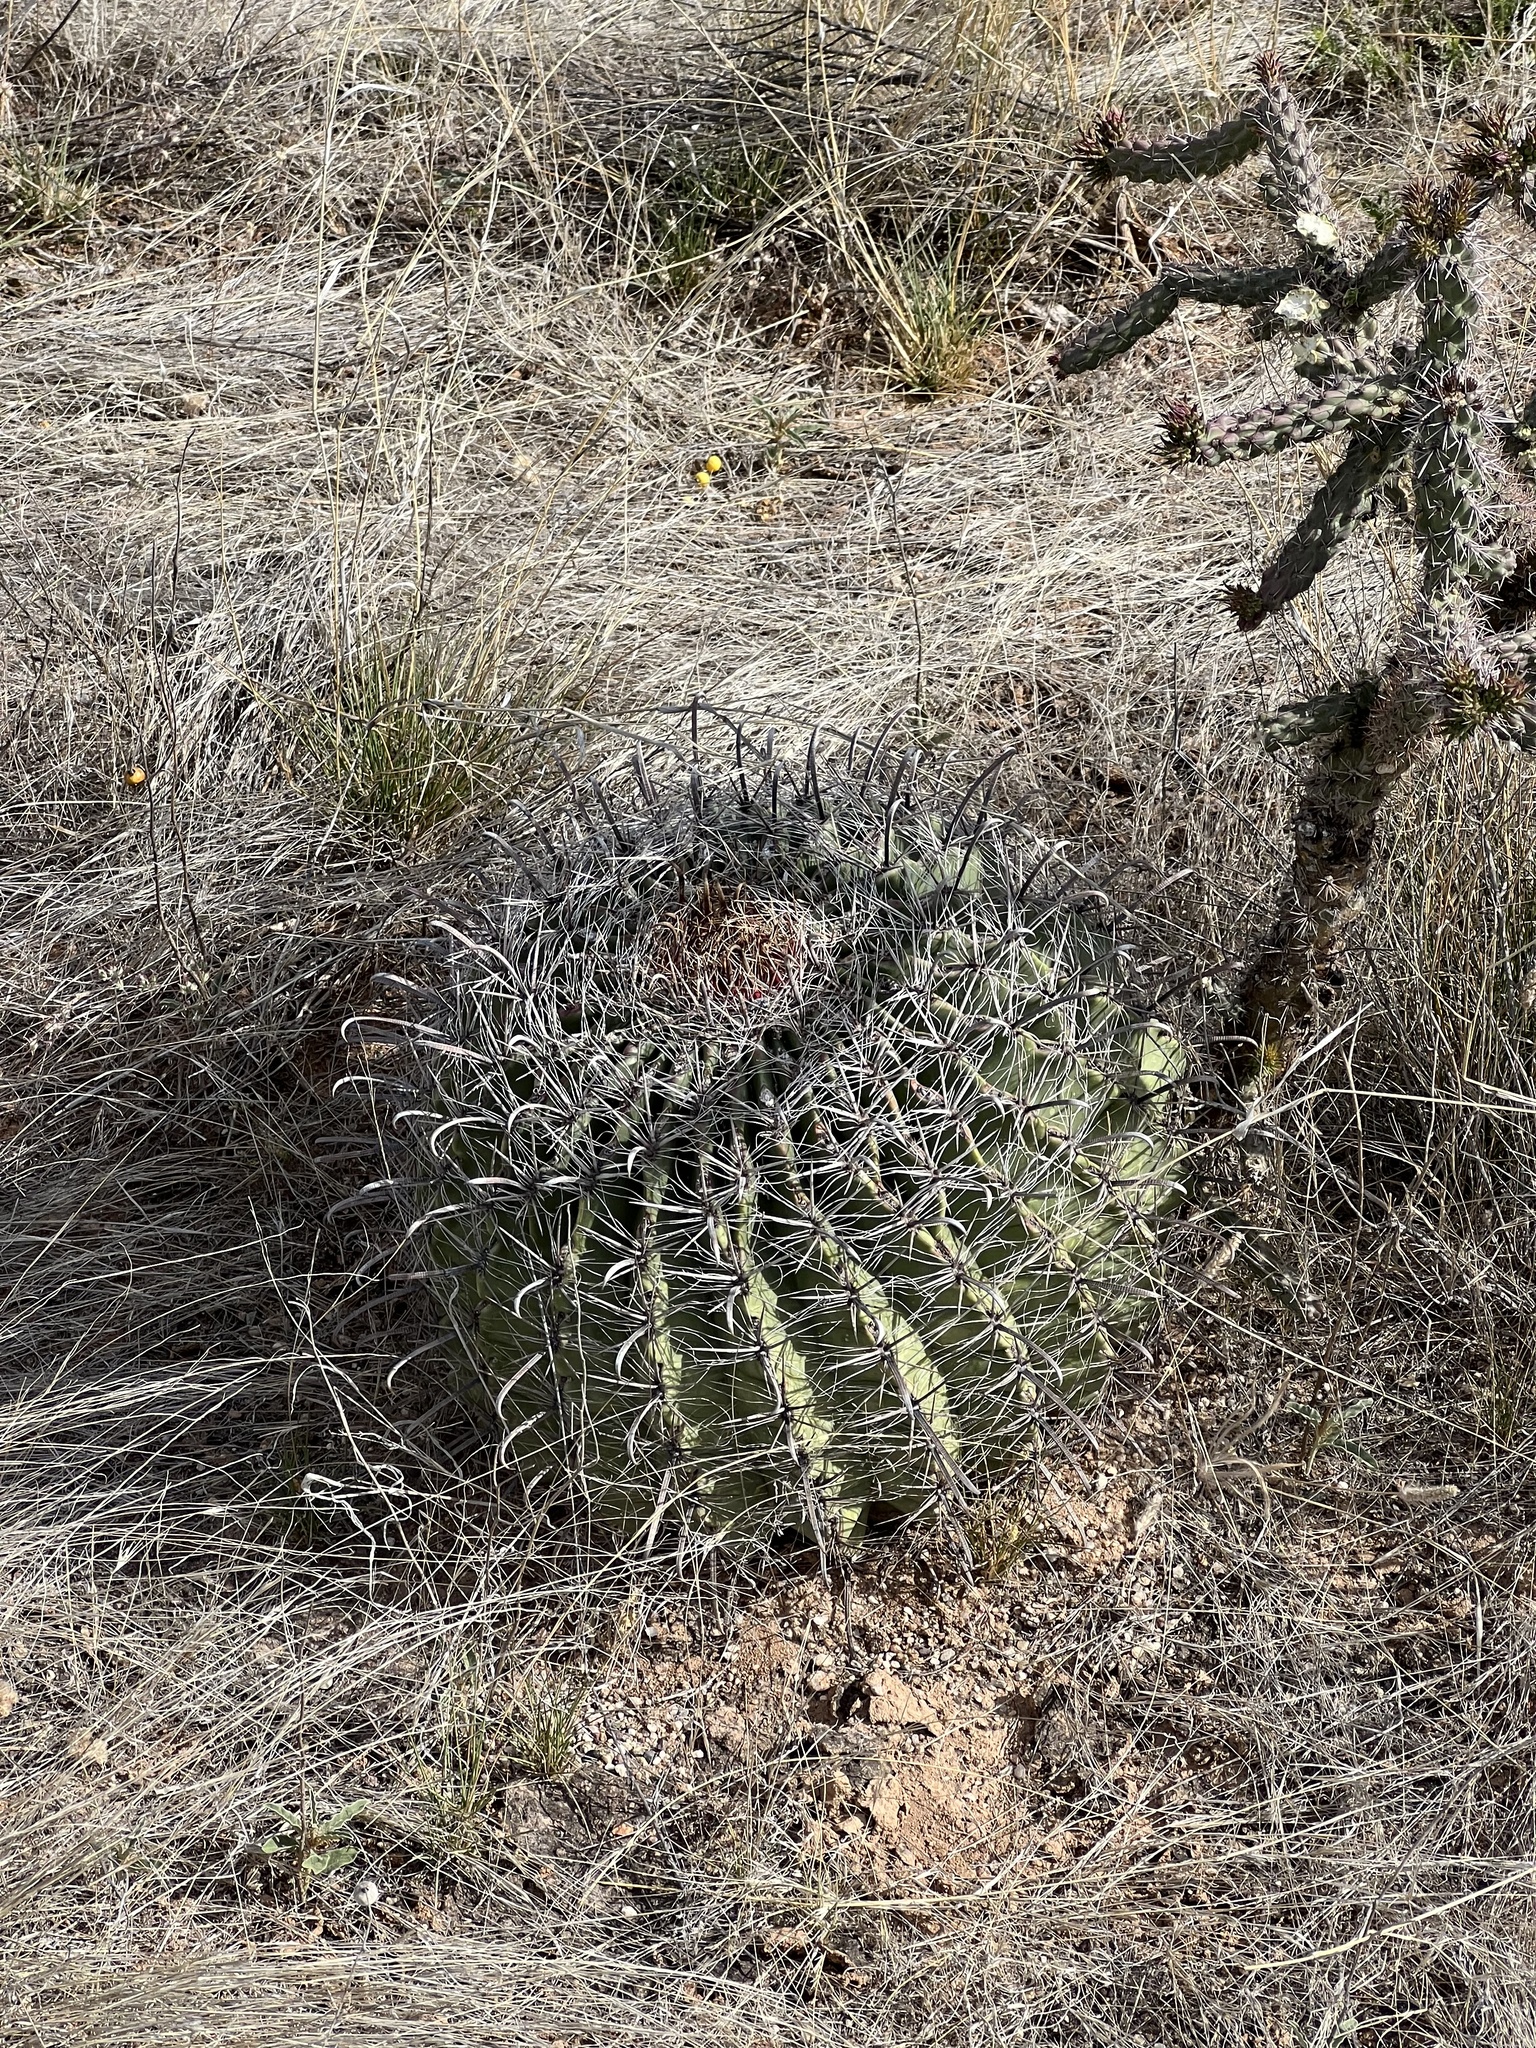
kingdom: Plantae
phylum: Tracheophyta
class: Magnoliopsida
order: Caryophyllales
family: Cactaceae
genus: Ferocactus
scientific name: Ferocactus wislizeni
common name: Candy barrel cactus
